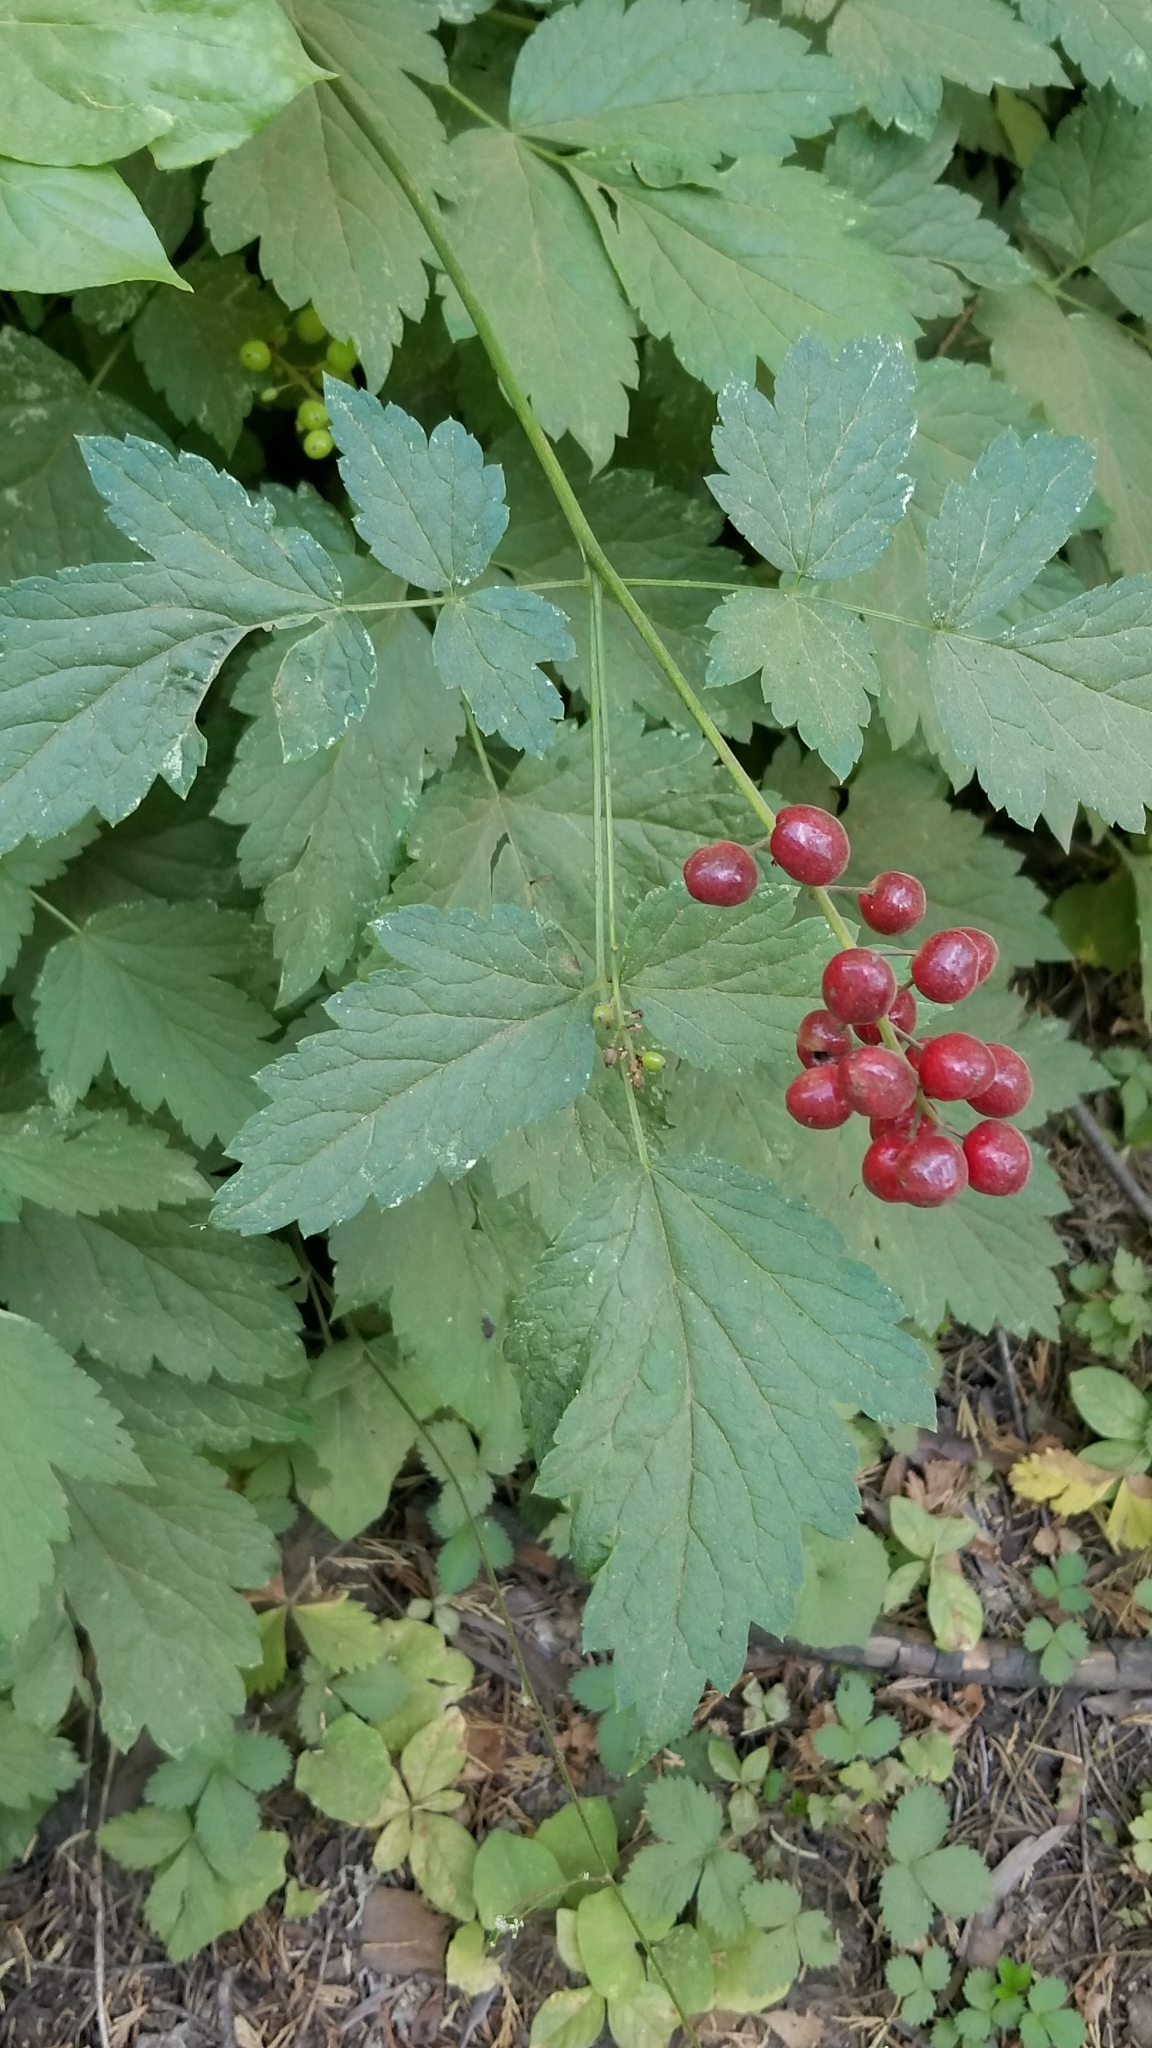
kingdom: Plantae
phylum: Tracheophyta
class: Magnoliopsida
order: Ranunculales
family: Ranunculaceae
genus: Actaea
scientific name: Actaea rubra
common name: Red baneberry
